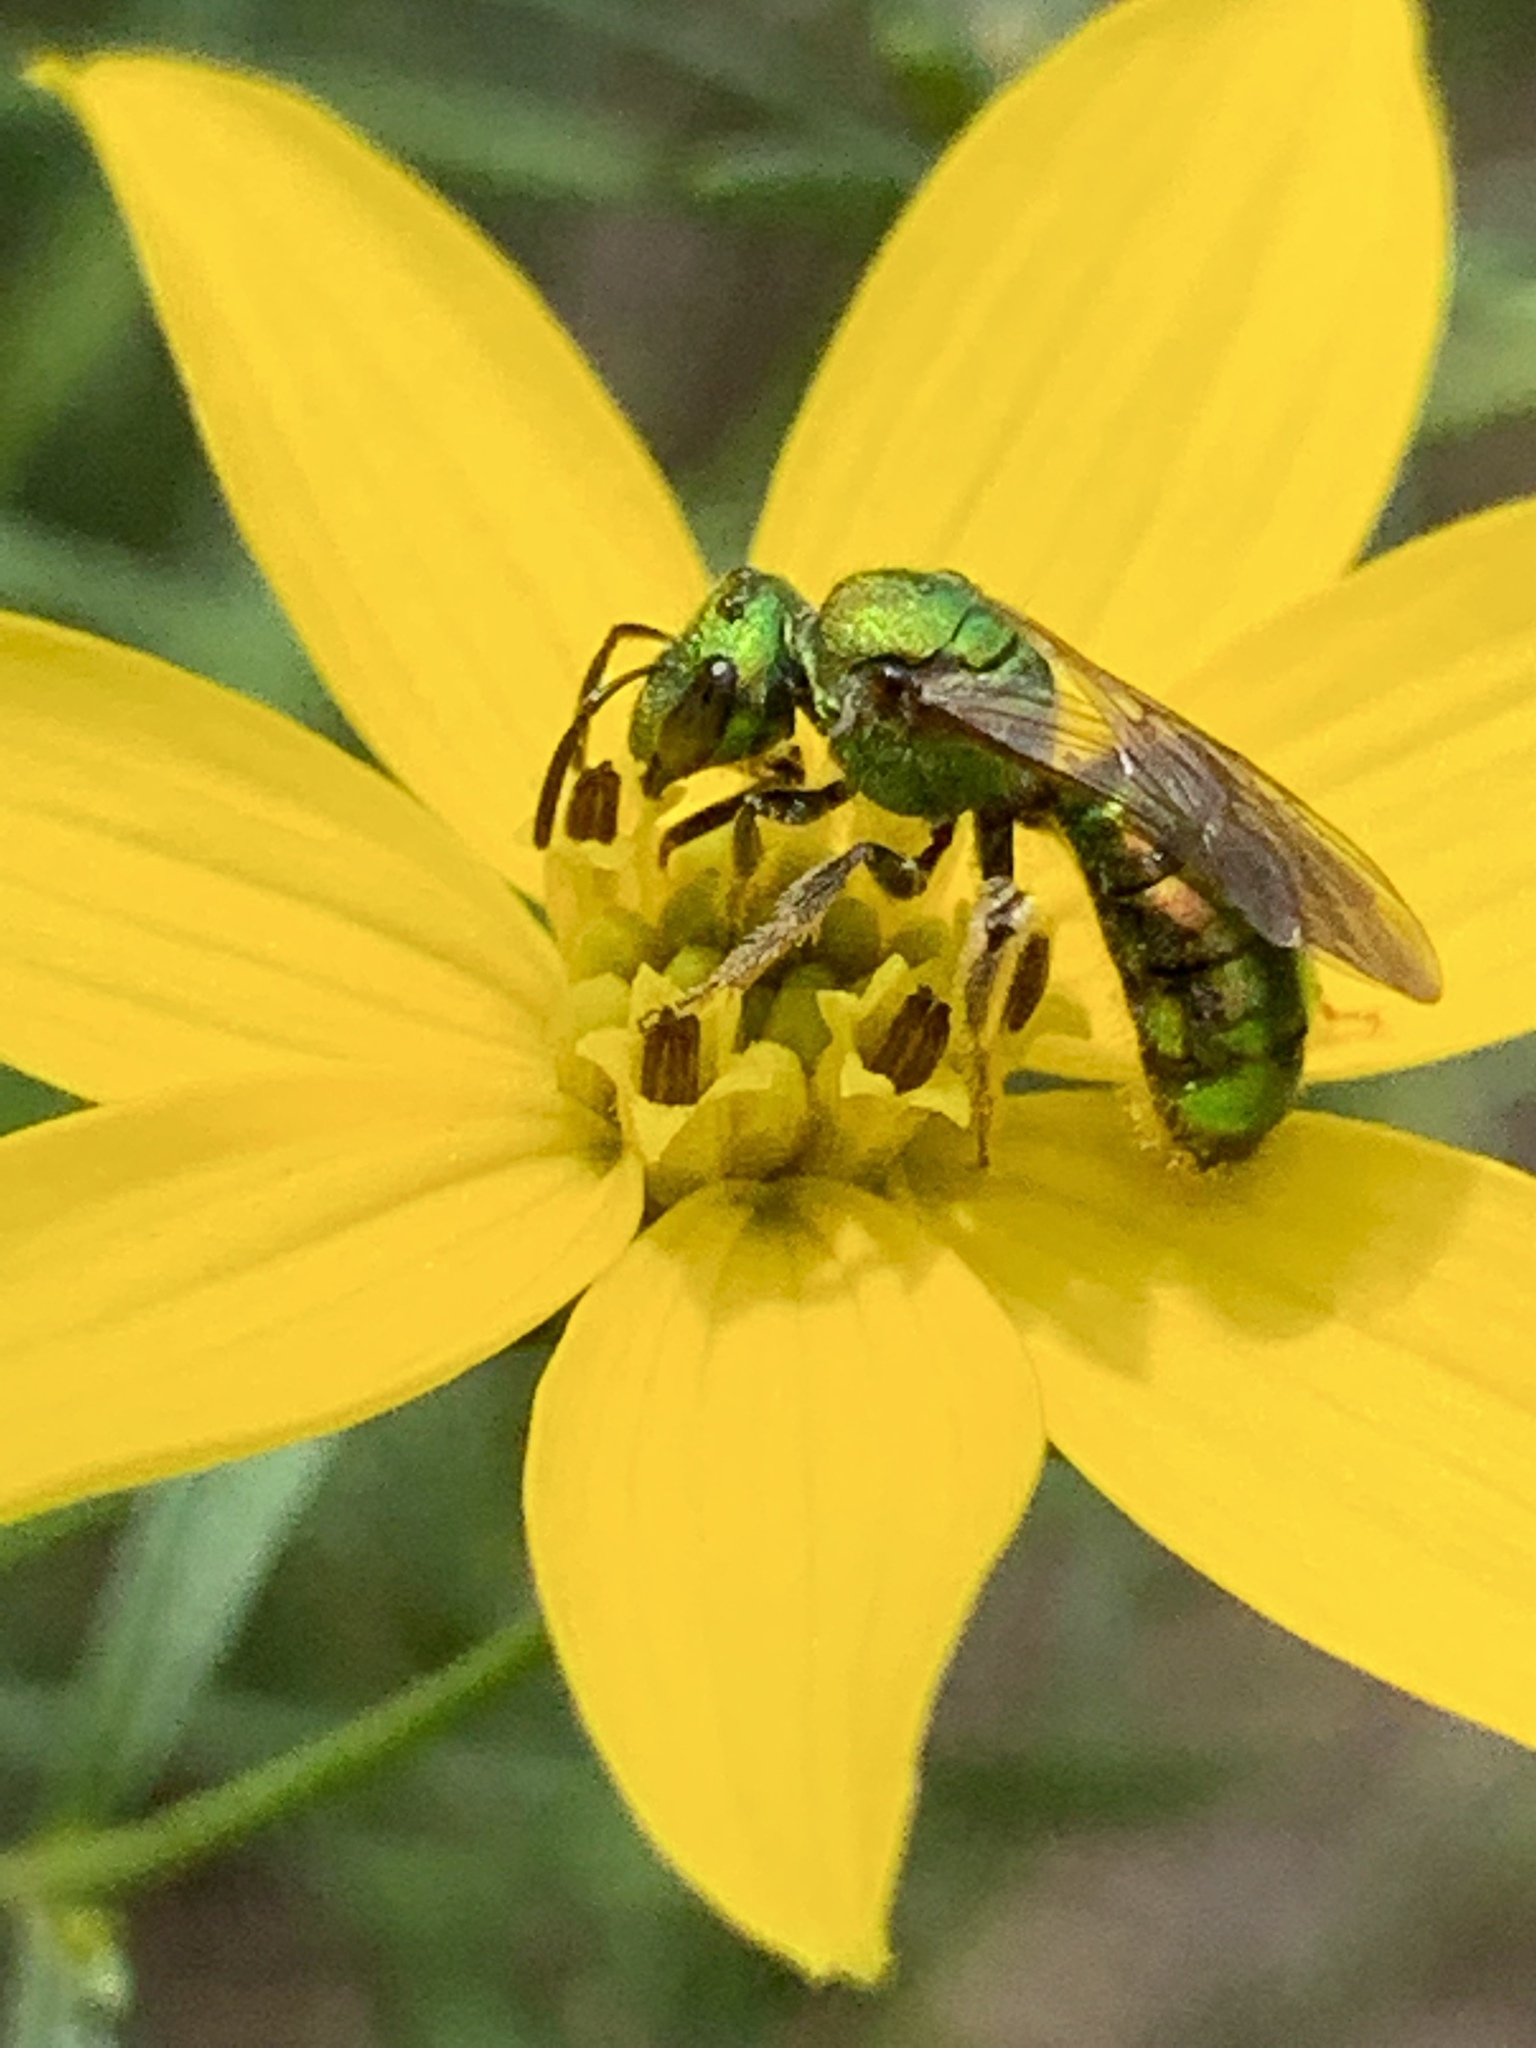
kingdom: Animalia
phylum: Arthropoda
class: Insecta
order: Hymenoptera
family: Halictidae
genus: Augochlora
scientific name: Augochlora pura
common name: Pure green sweat bee
